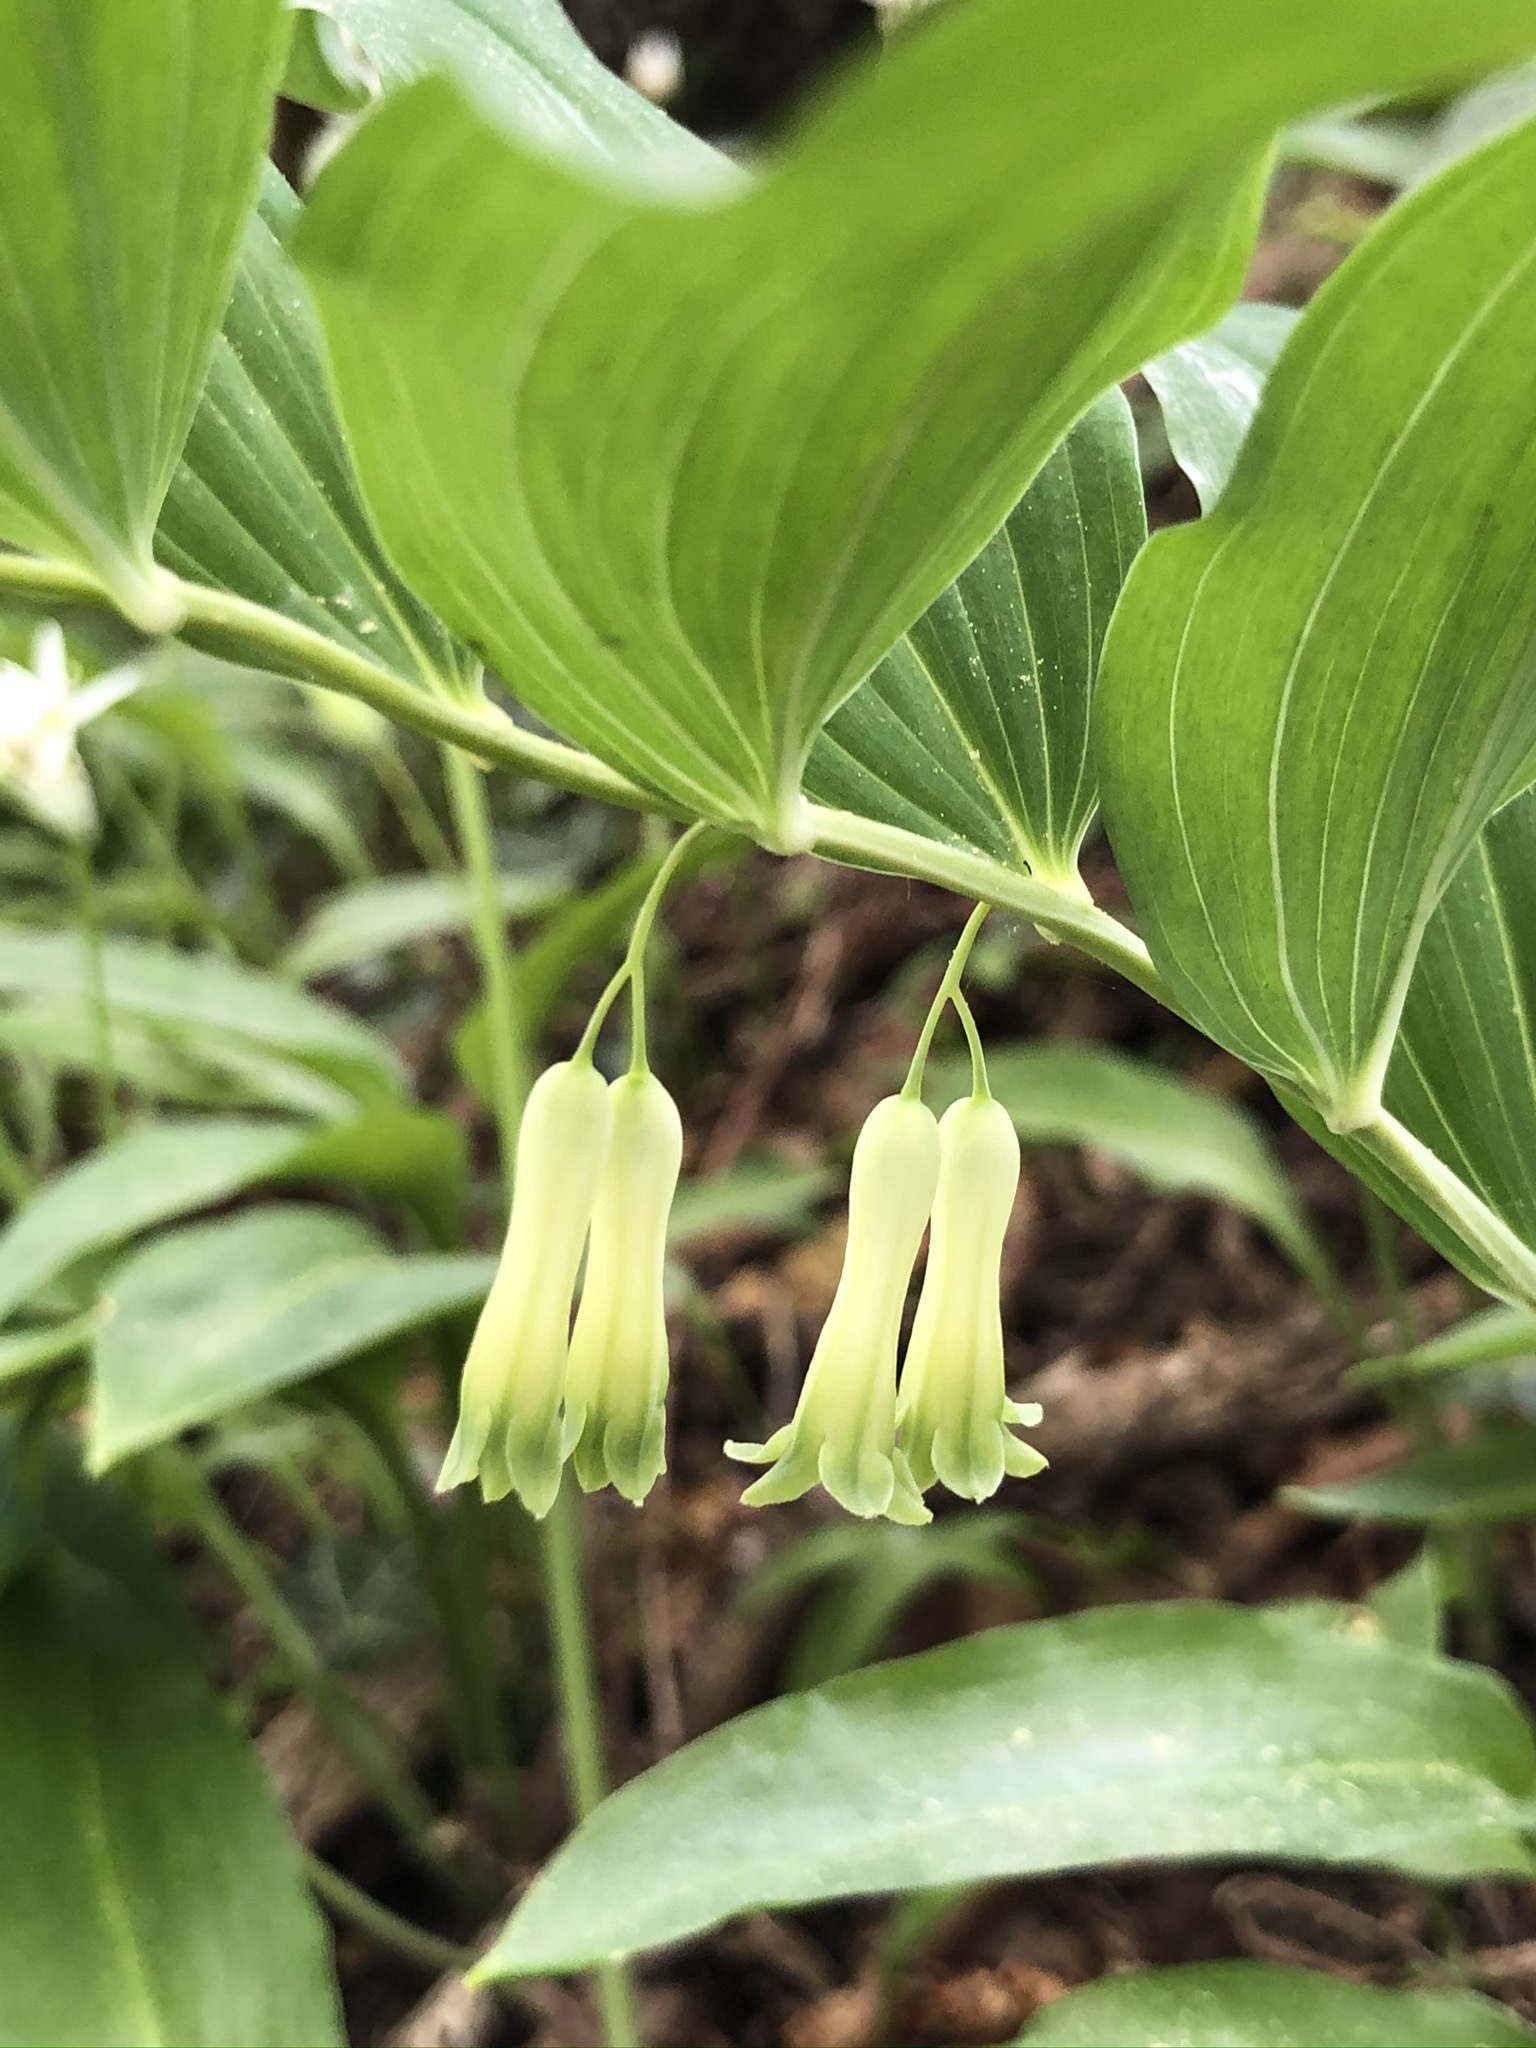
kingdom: Plantae
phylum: Tracheophyta
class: Liliopsida
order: Asparagales
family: Asparagaceae
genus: Polygonatum
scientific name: Polygonatum multiflorum
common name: Solomon's-seal
